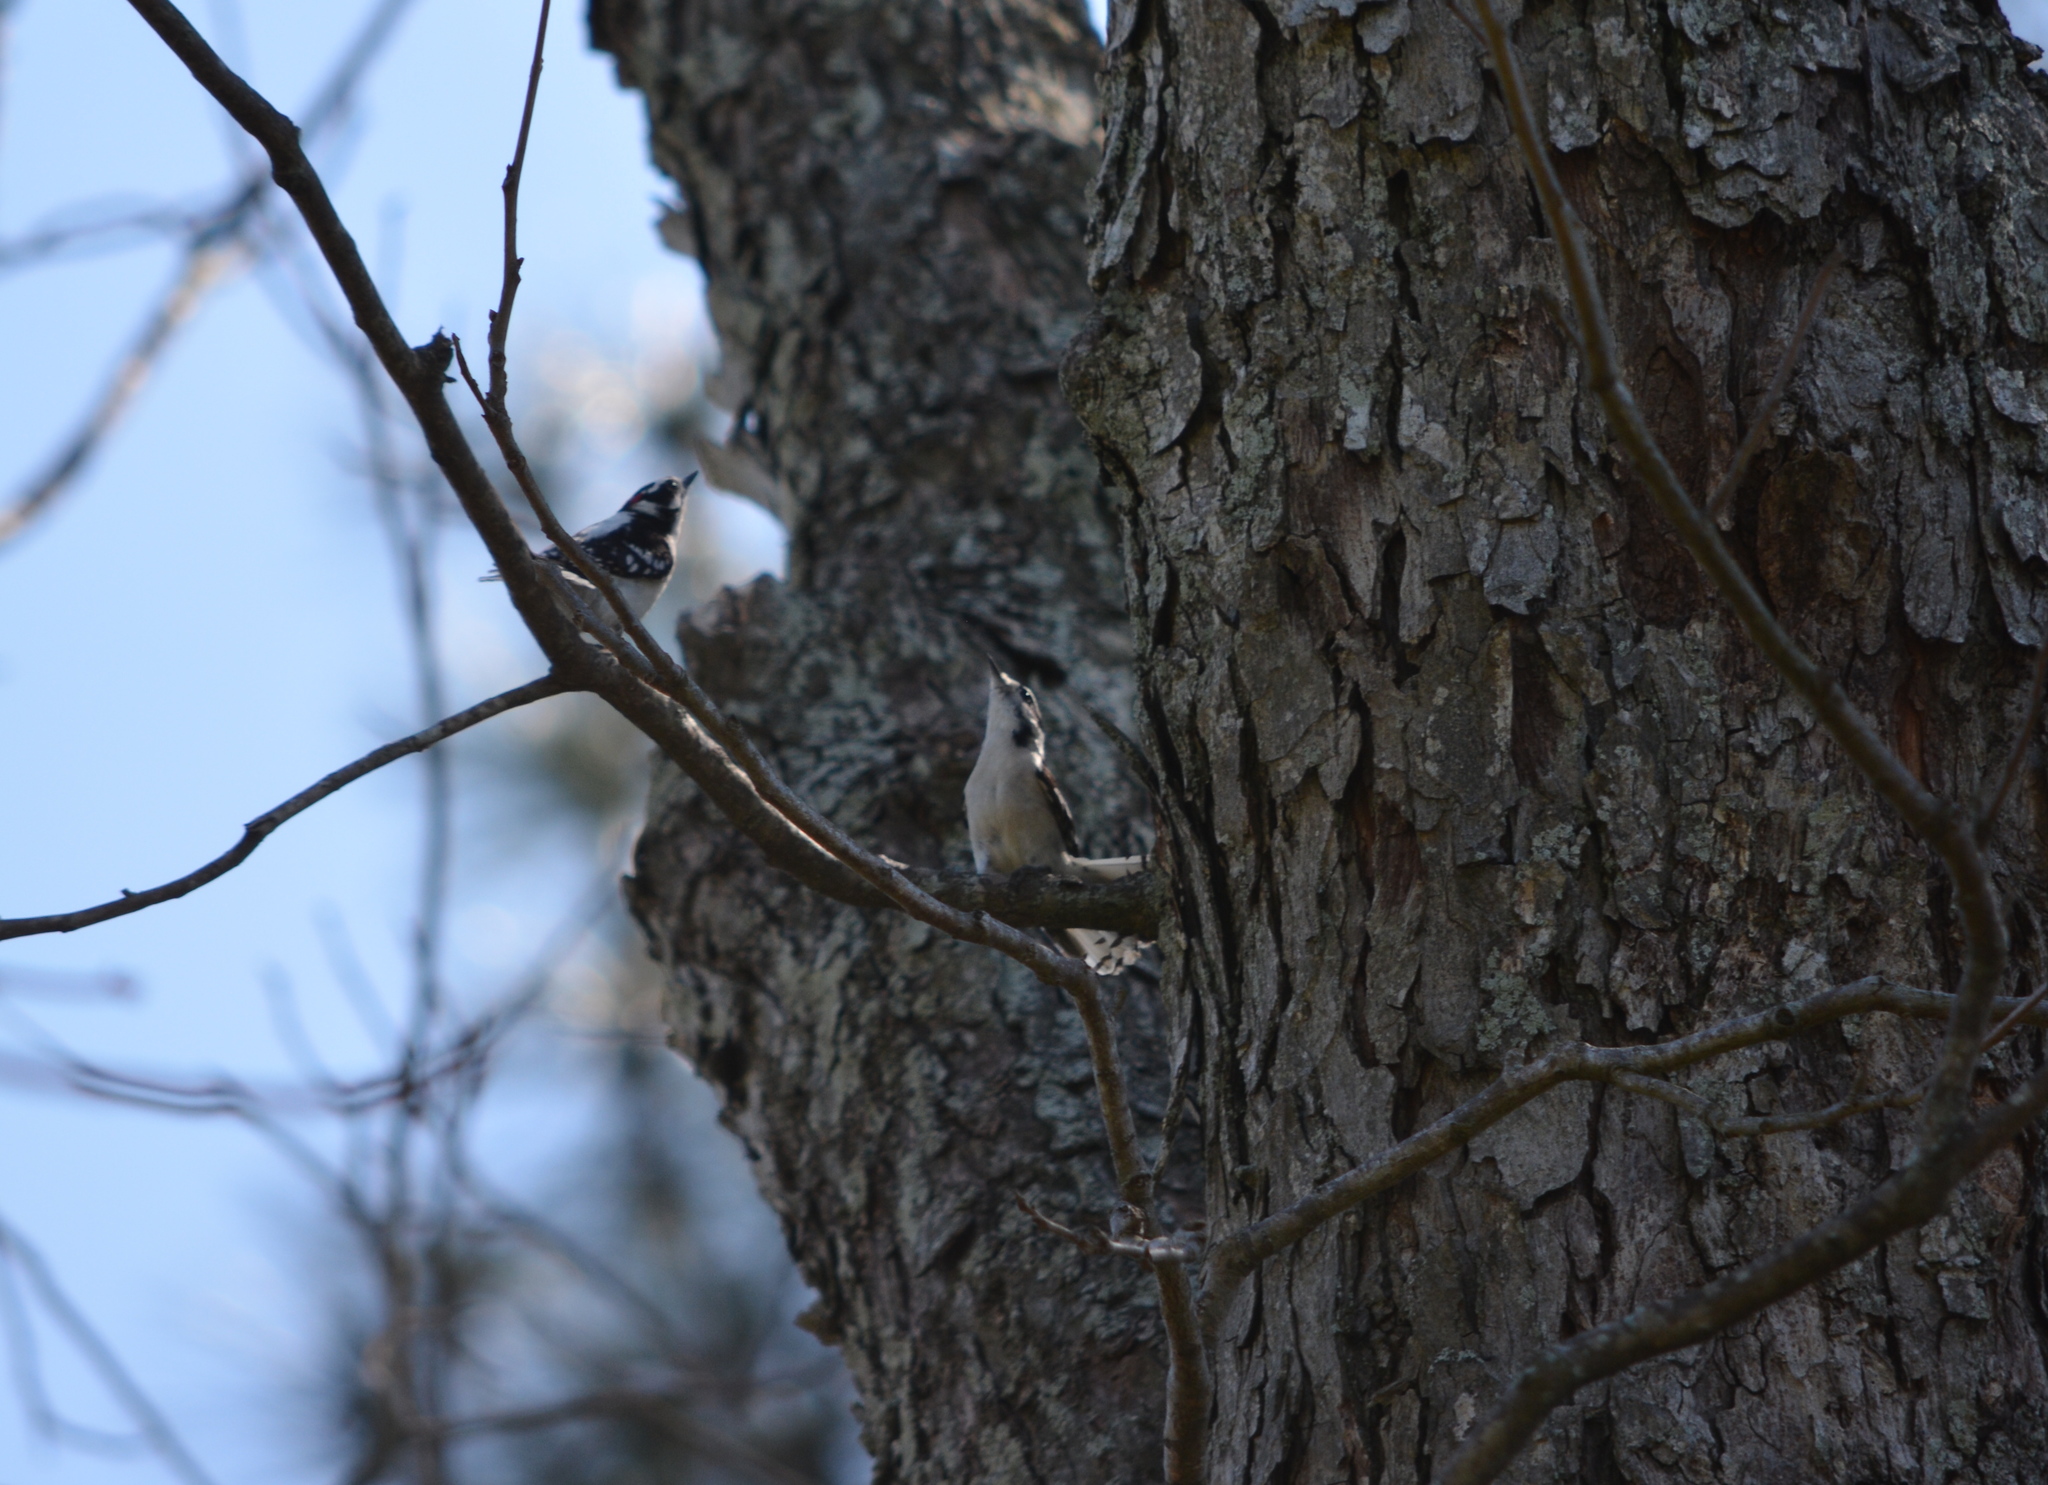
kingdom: Animalia
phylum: Chordata
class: Aves
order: Piciformes
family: Picidae
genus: Dryobates
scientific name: Dryobates pubescens
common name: Downy woodpecker
